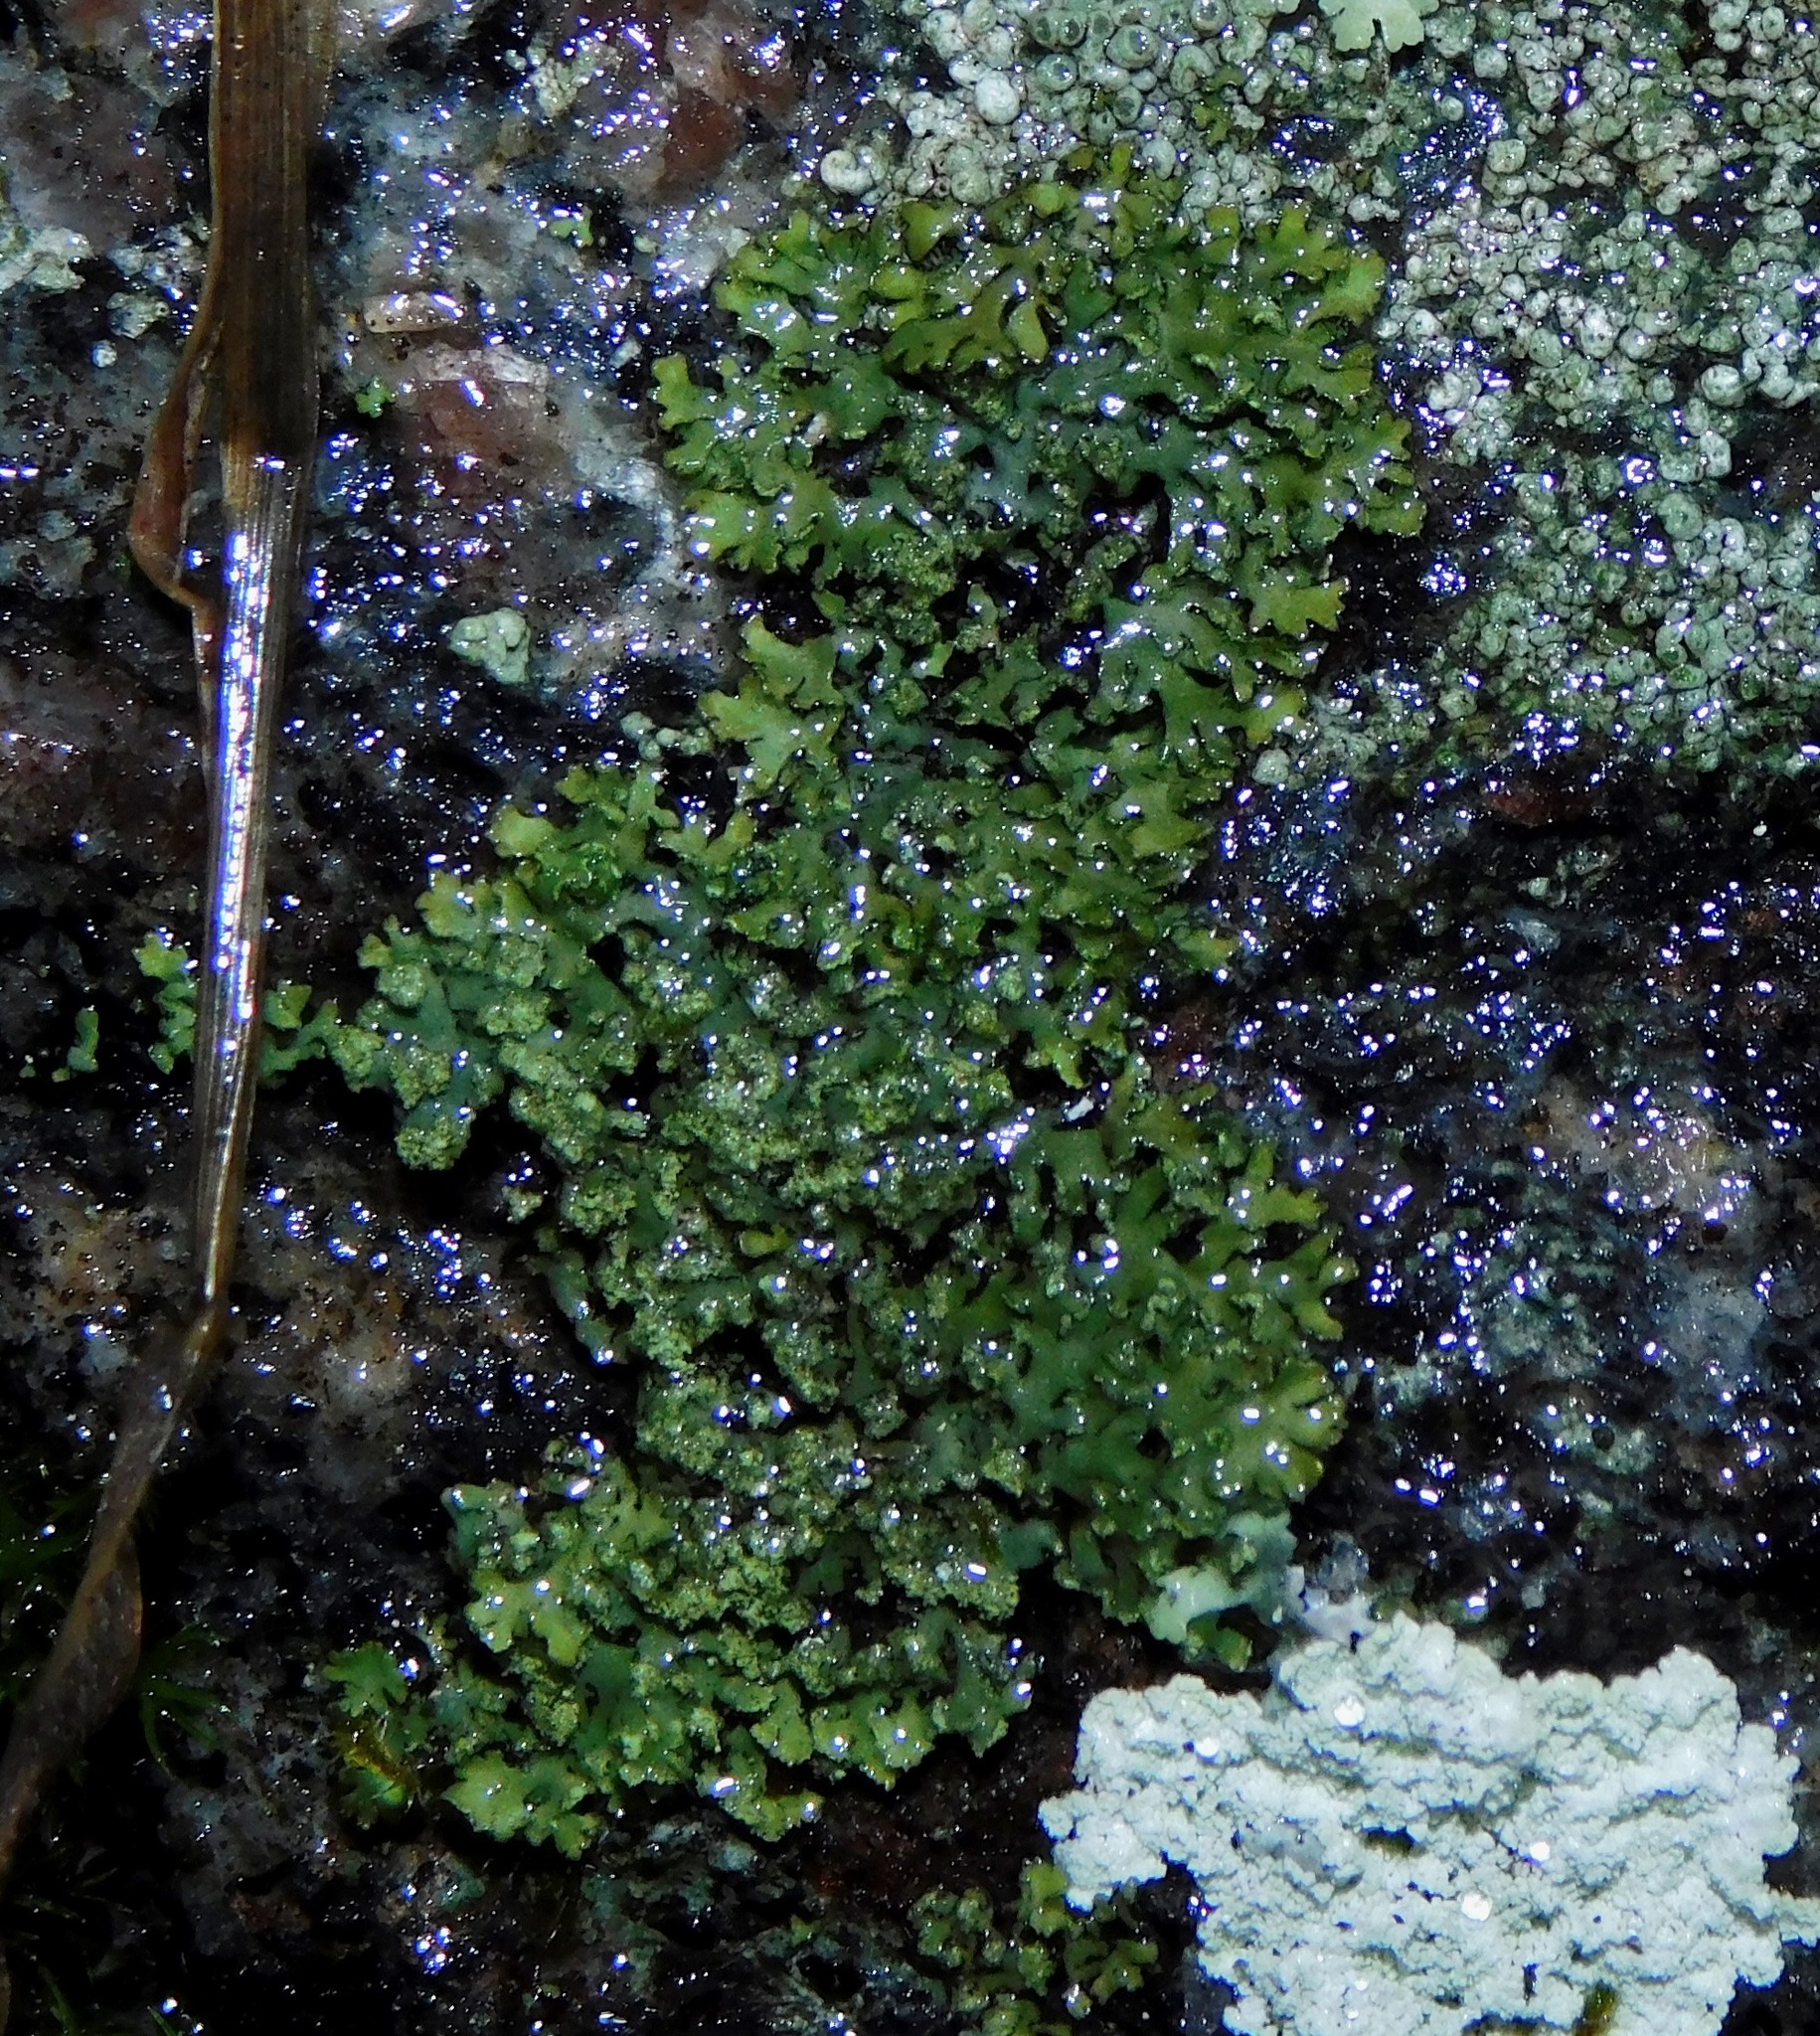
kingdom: Fungi
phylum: Ascomycota
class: Lecanoromycetes
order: Caliciales
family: Physciaceae
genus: Phaeophyscia
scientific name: Phaeophyscia ciliata
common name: Smooth shadow lichen
